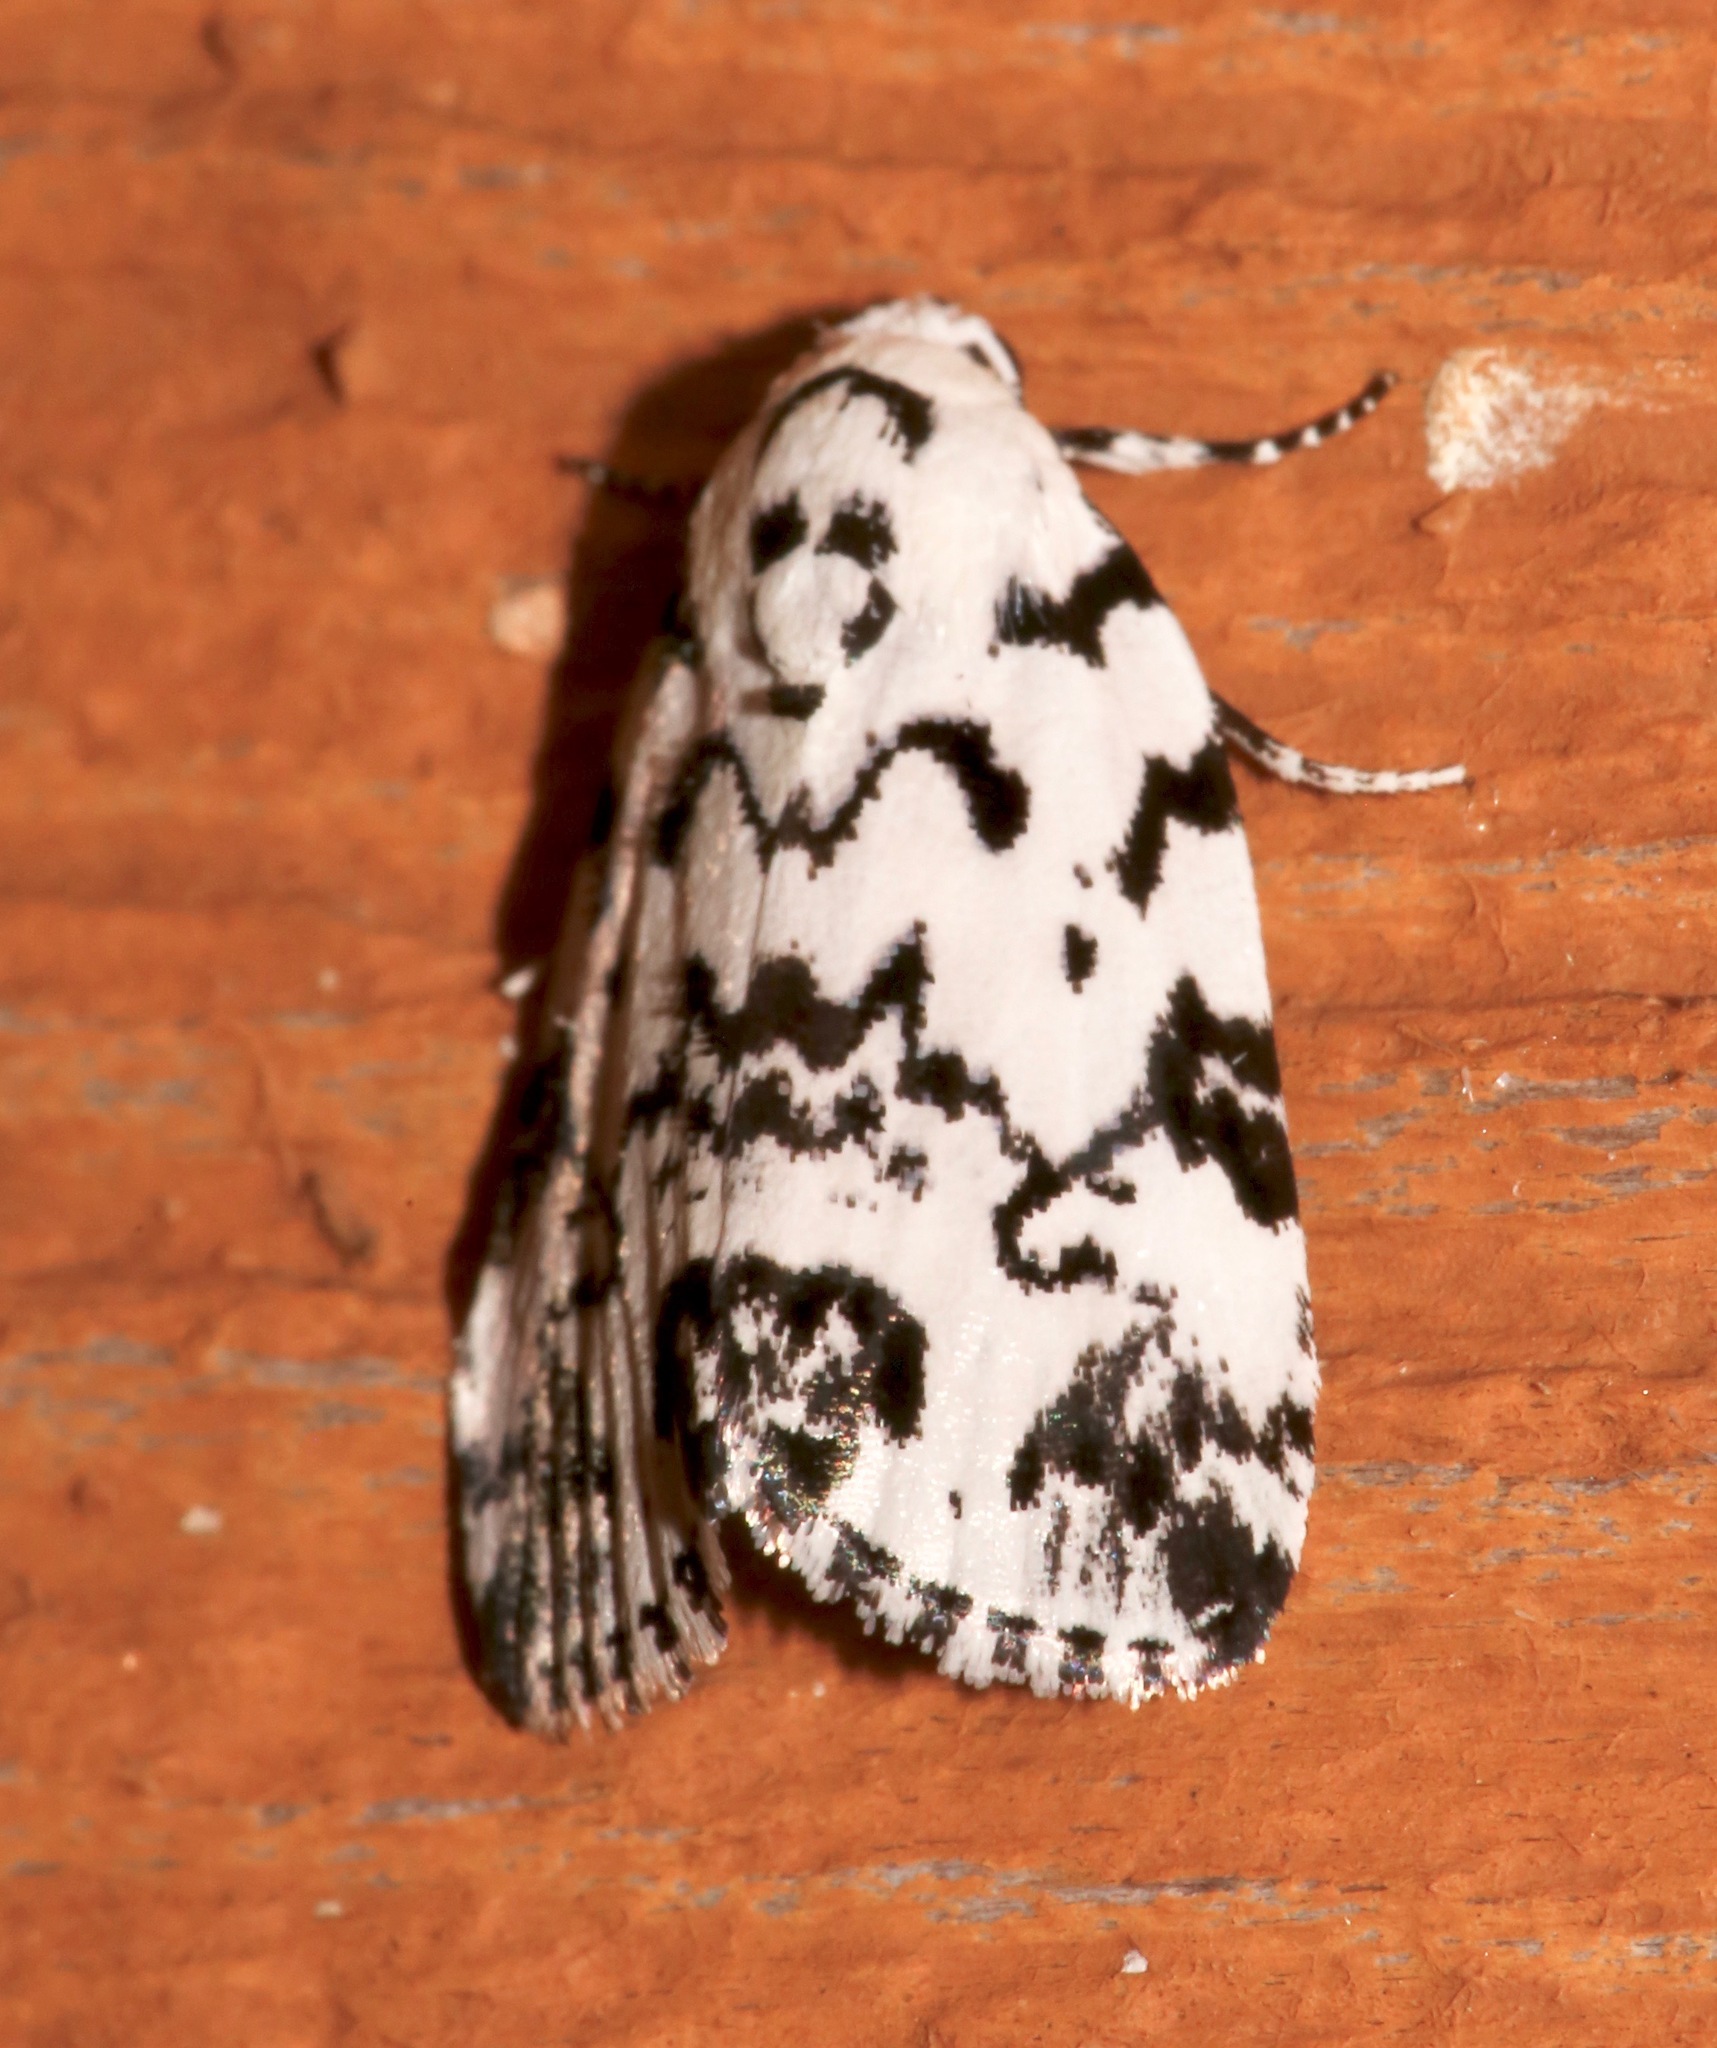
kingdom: Animalia
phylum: Arthropoda
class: Insecta
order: Lepidoptera
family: Noctuidae
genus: Polygrammate
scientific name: Polygrammate hebraeicum
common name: Hebrew moth
